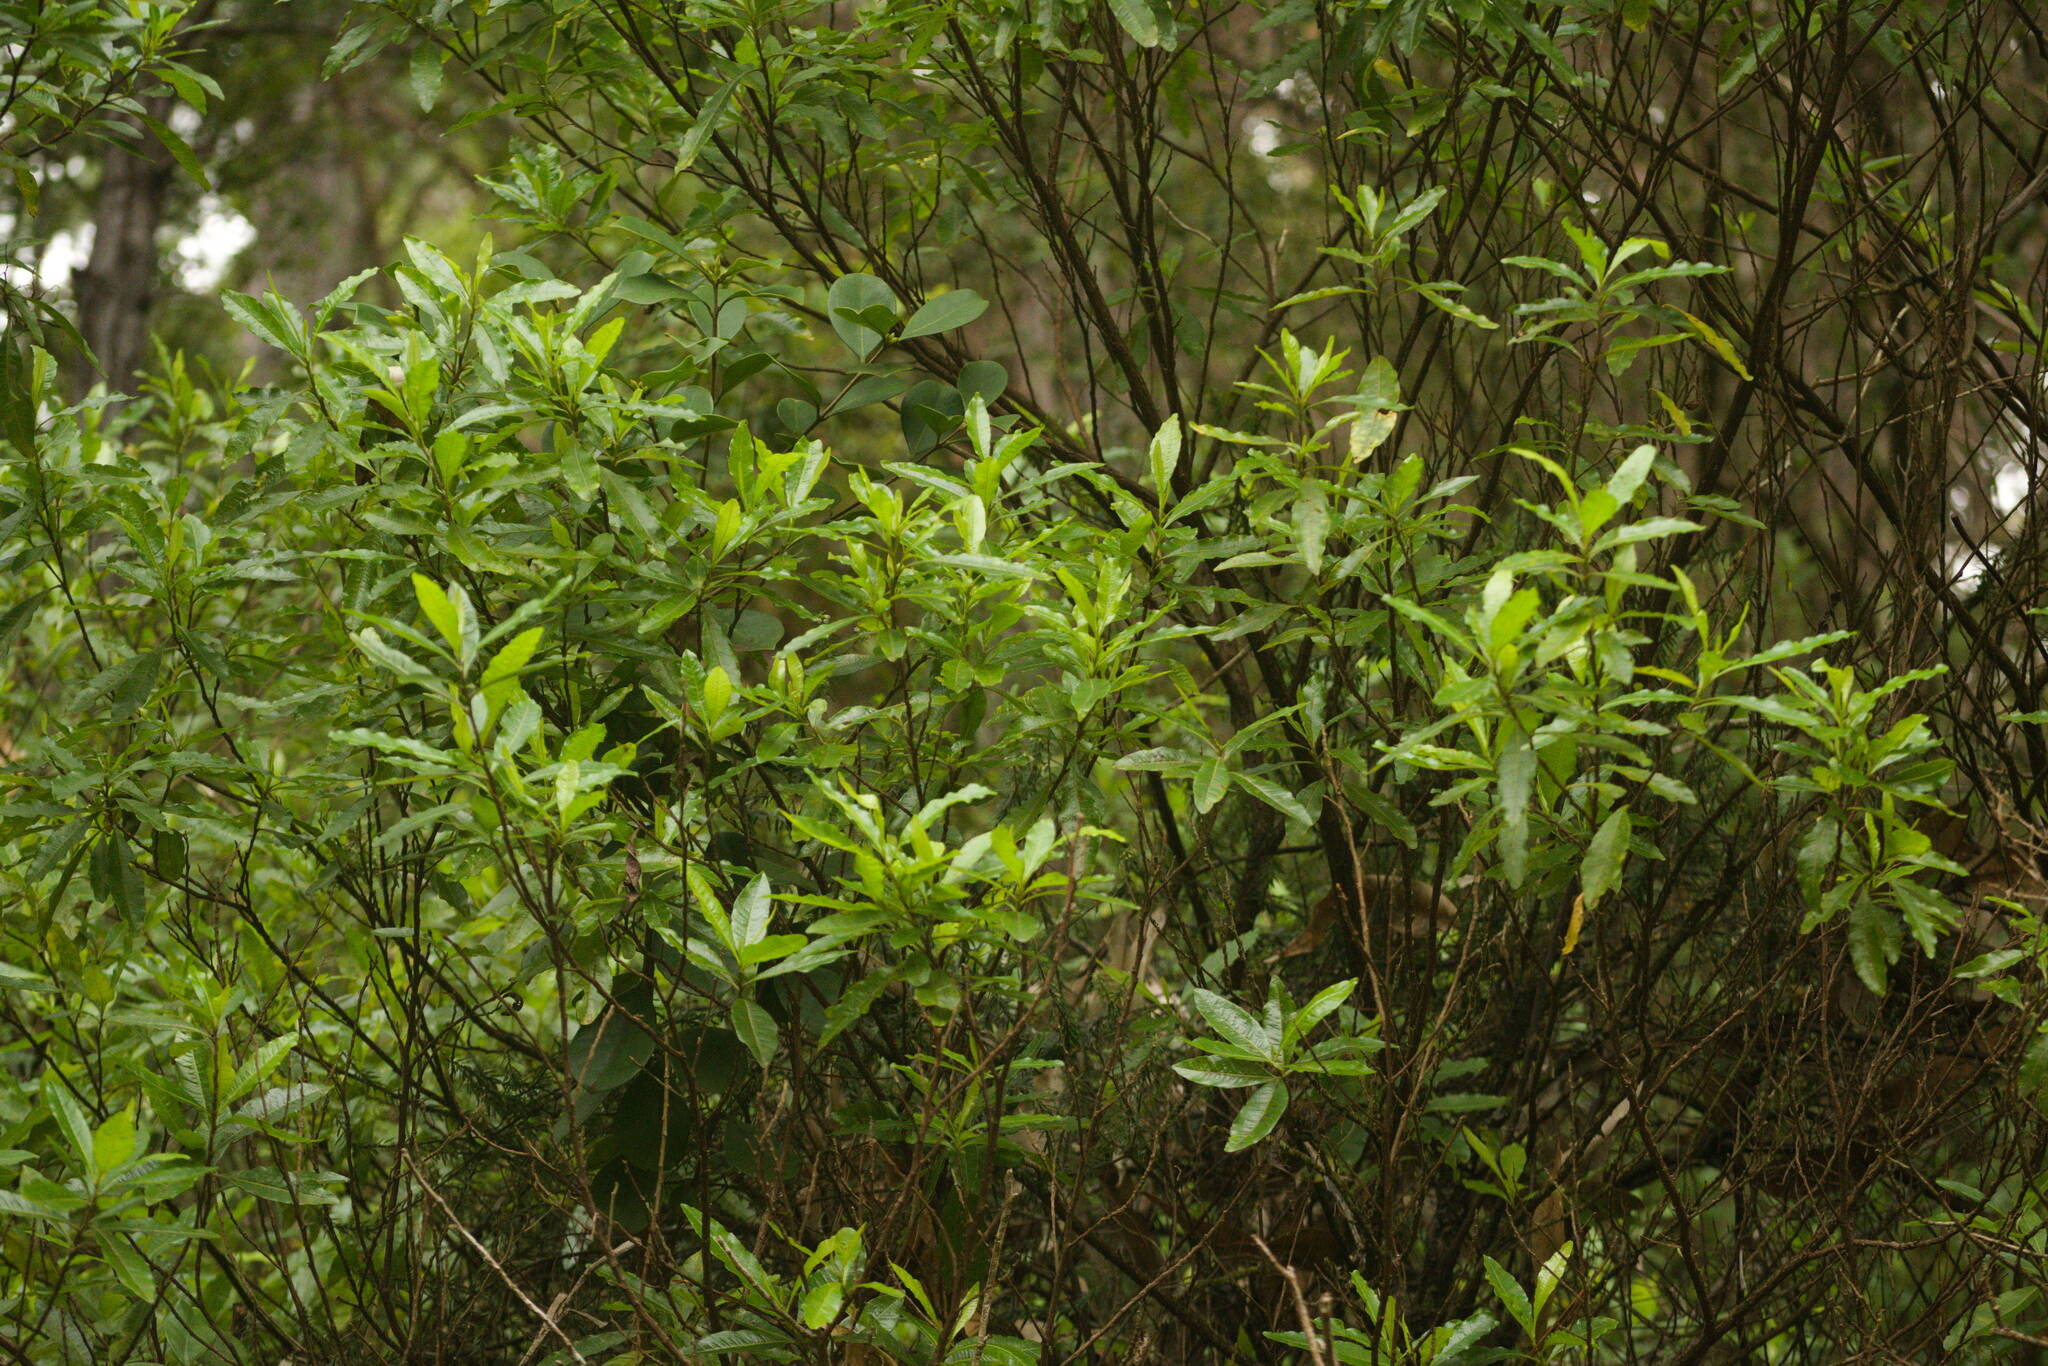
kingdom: Plantae
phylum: Tracheophyta
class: Magnoliopsida
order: Sapindales
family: Sapindaceae
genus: Dodonaea
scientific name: Dodonaea viscosa
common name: Hopbush
